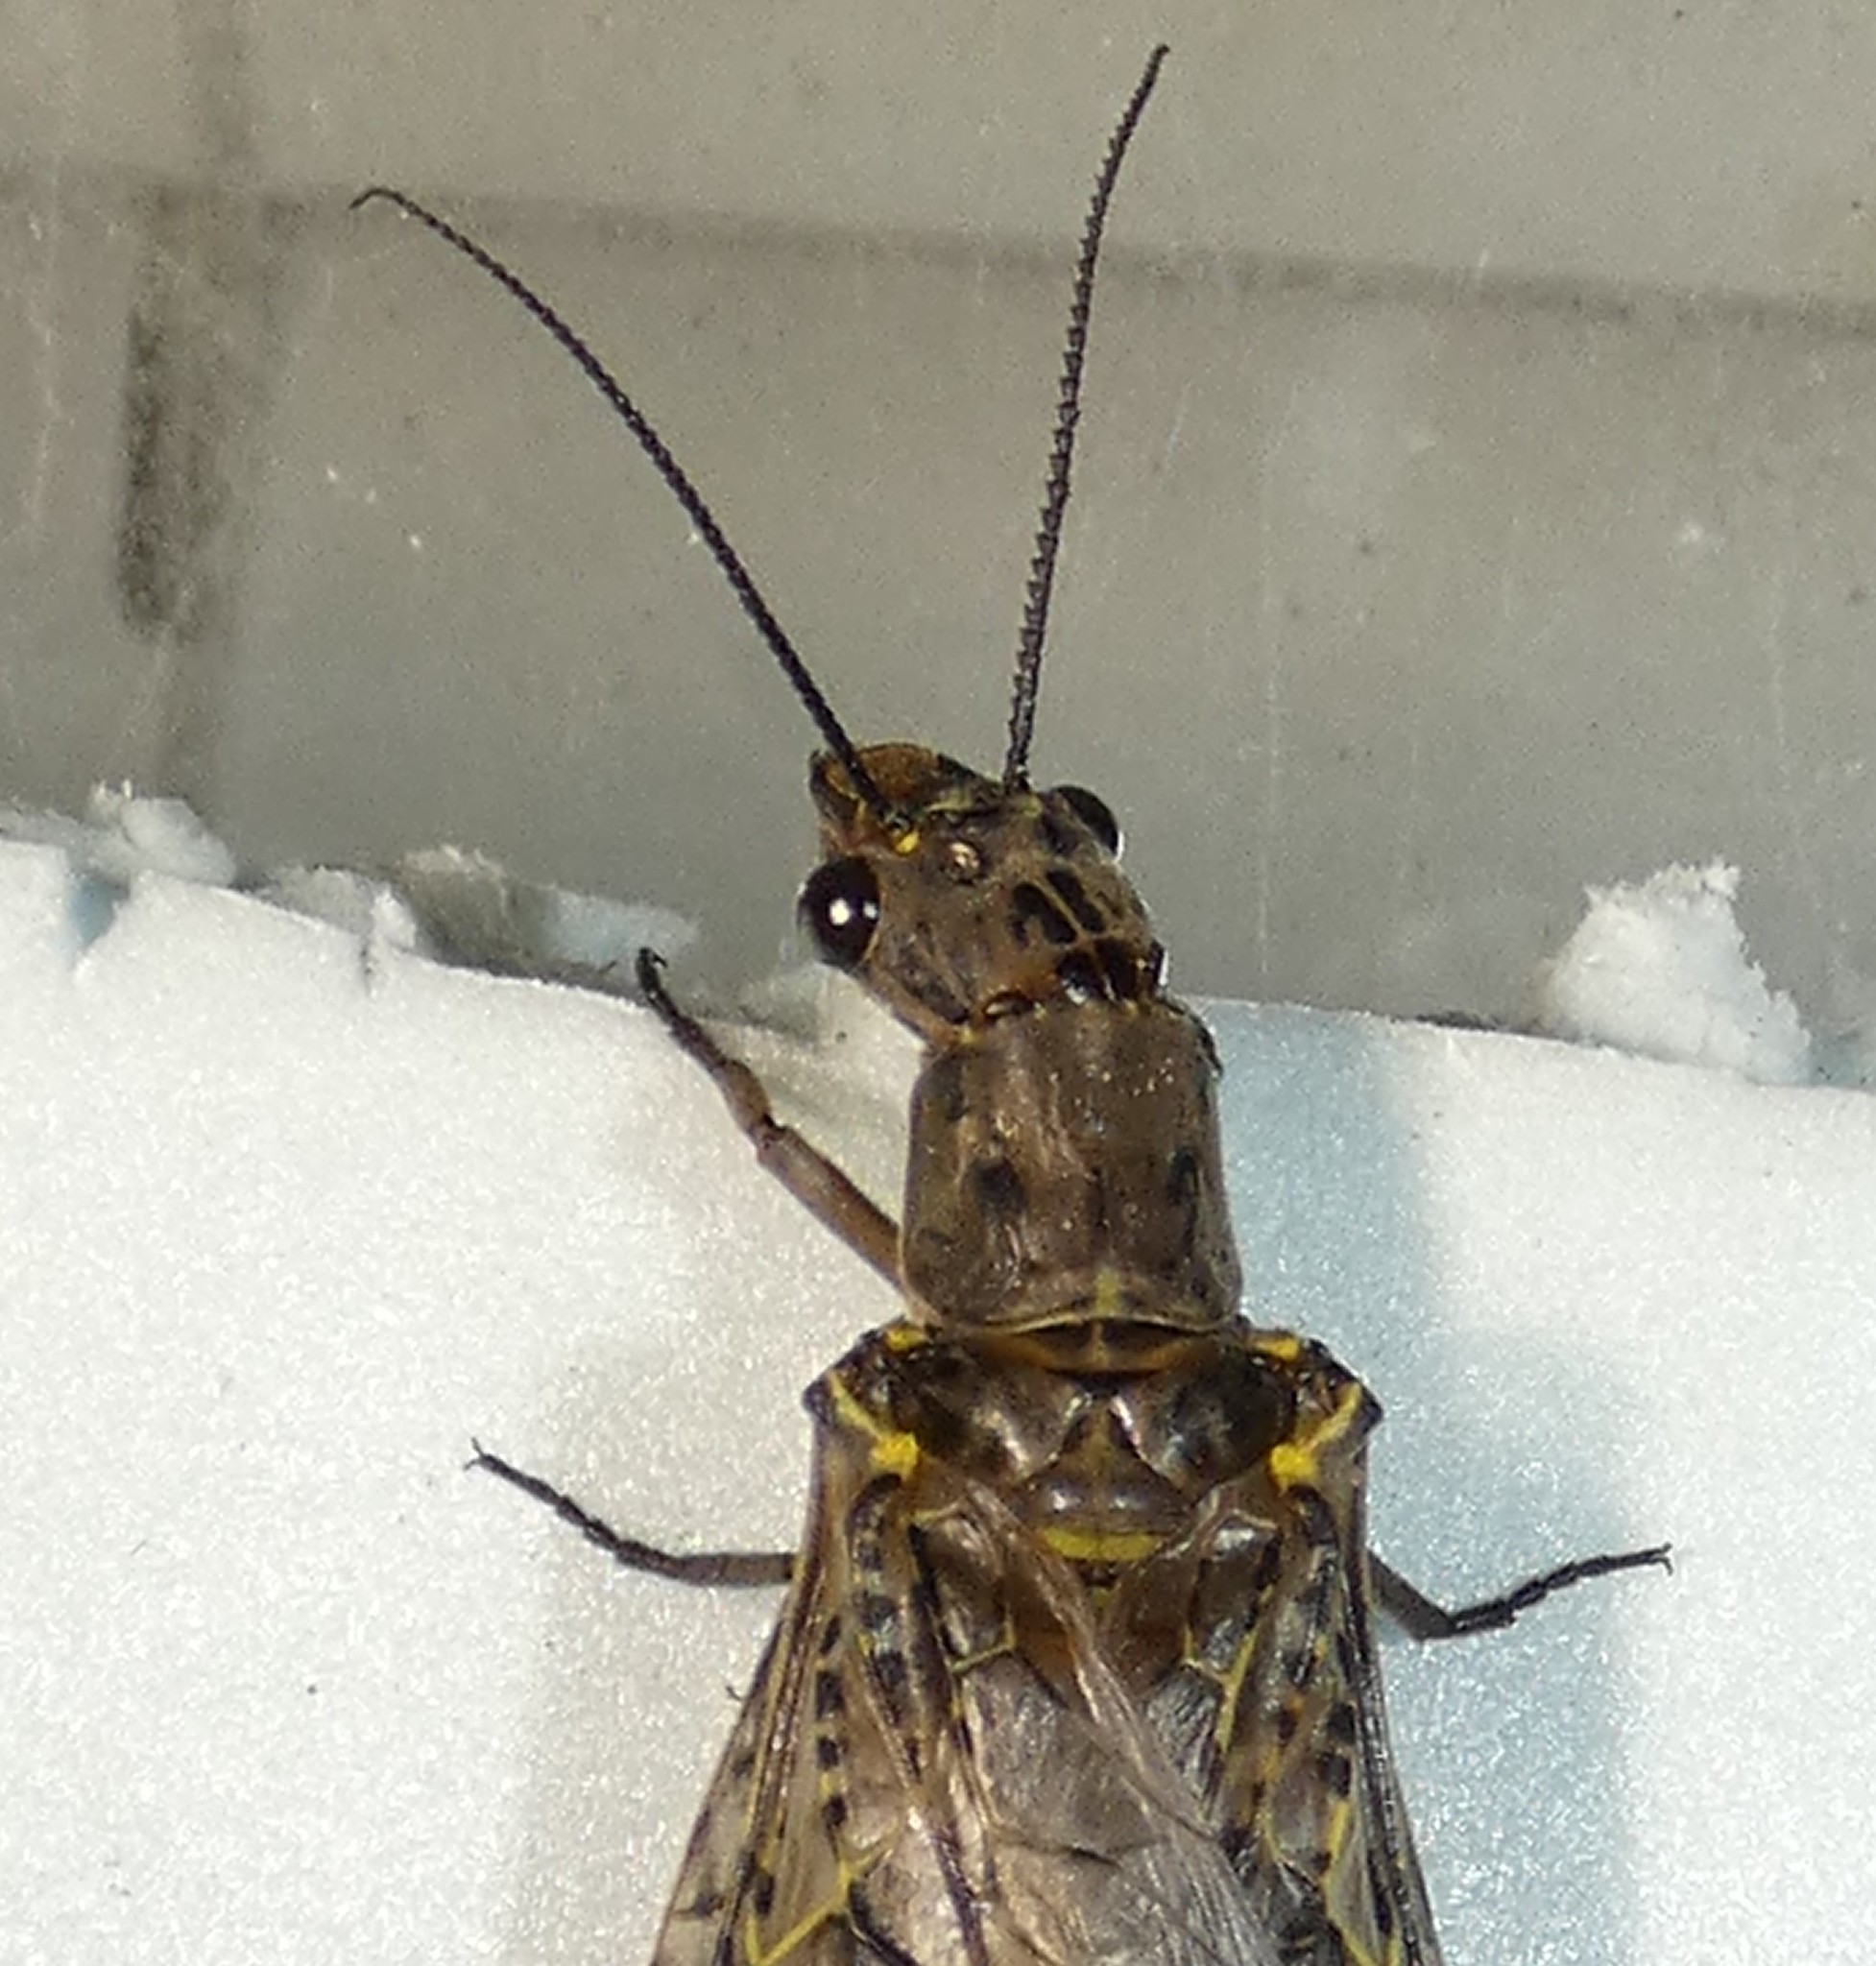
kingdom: Animalia
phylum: Arthropoda
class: Insecta
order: Megaloptera
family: Corydalidae
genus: Chauliodes
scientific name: Chauliodes rastricornis
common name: Spring fishfly
